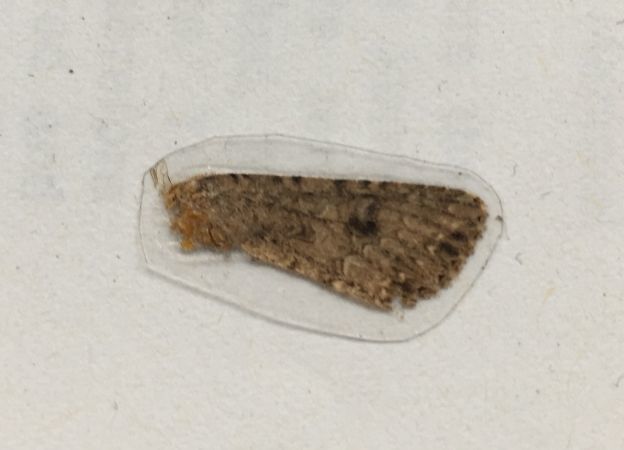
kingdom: Animalia
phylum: Arthropoda
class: Insecta
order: Lepidoptera
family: Noctuidae
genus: Anarta
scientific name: Anarta trifolii
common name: Clover cutworm moth
